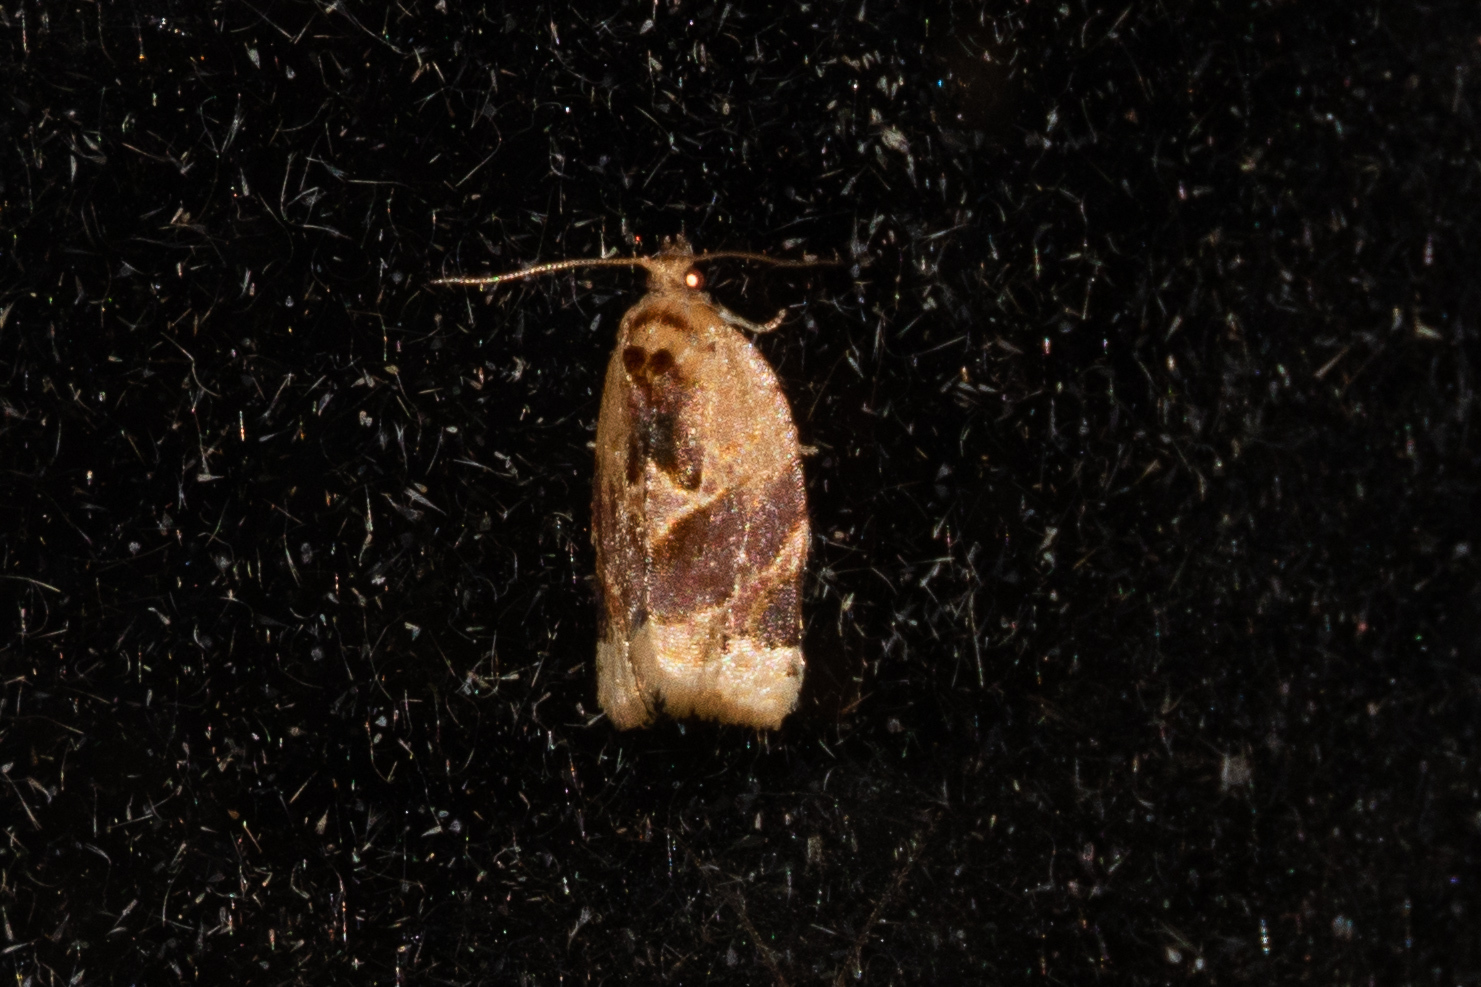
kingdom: Animalia
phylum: Arthropoda
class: Insecta
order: Lepidoptera
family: Tortricidae
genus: Argyrotaenia
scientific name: Argyrotaenia velutinana
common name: Red-banded leafroller moth
